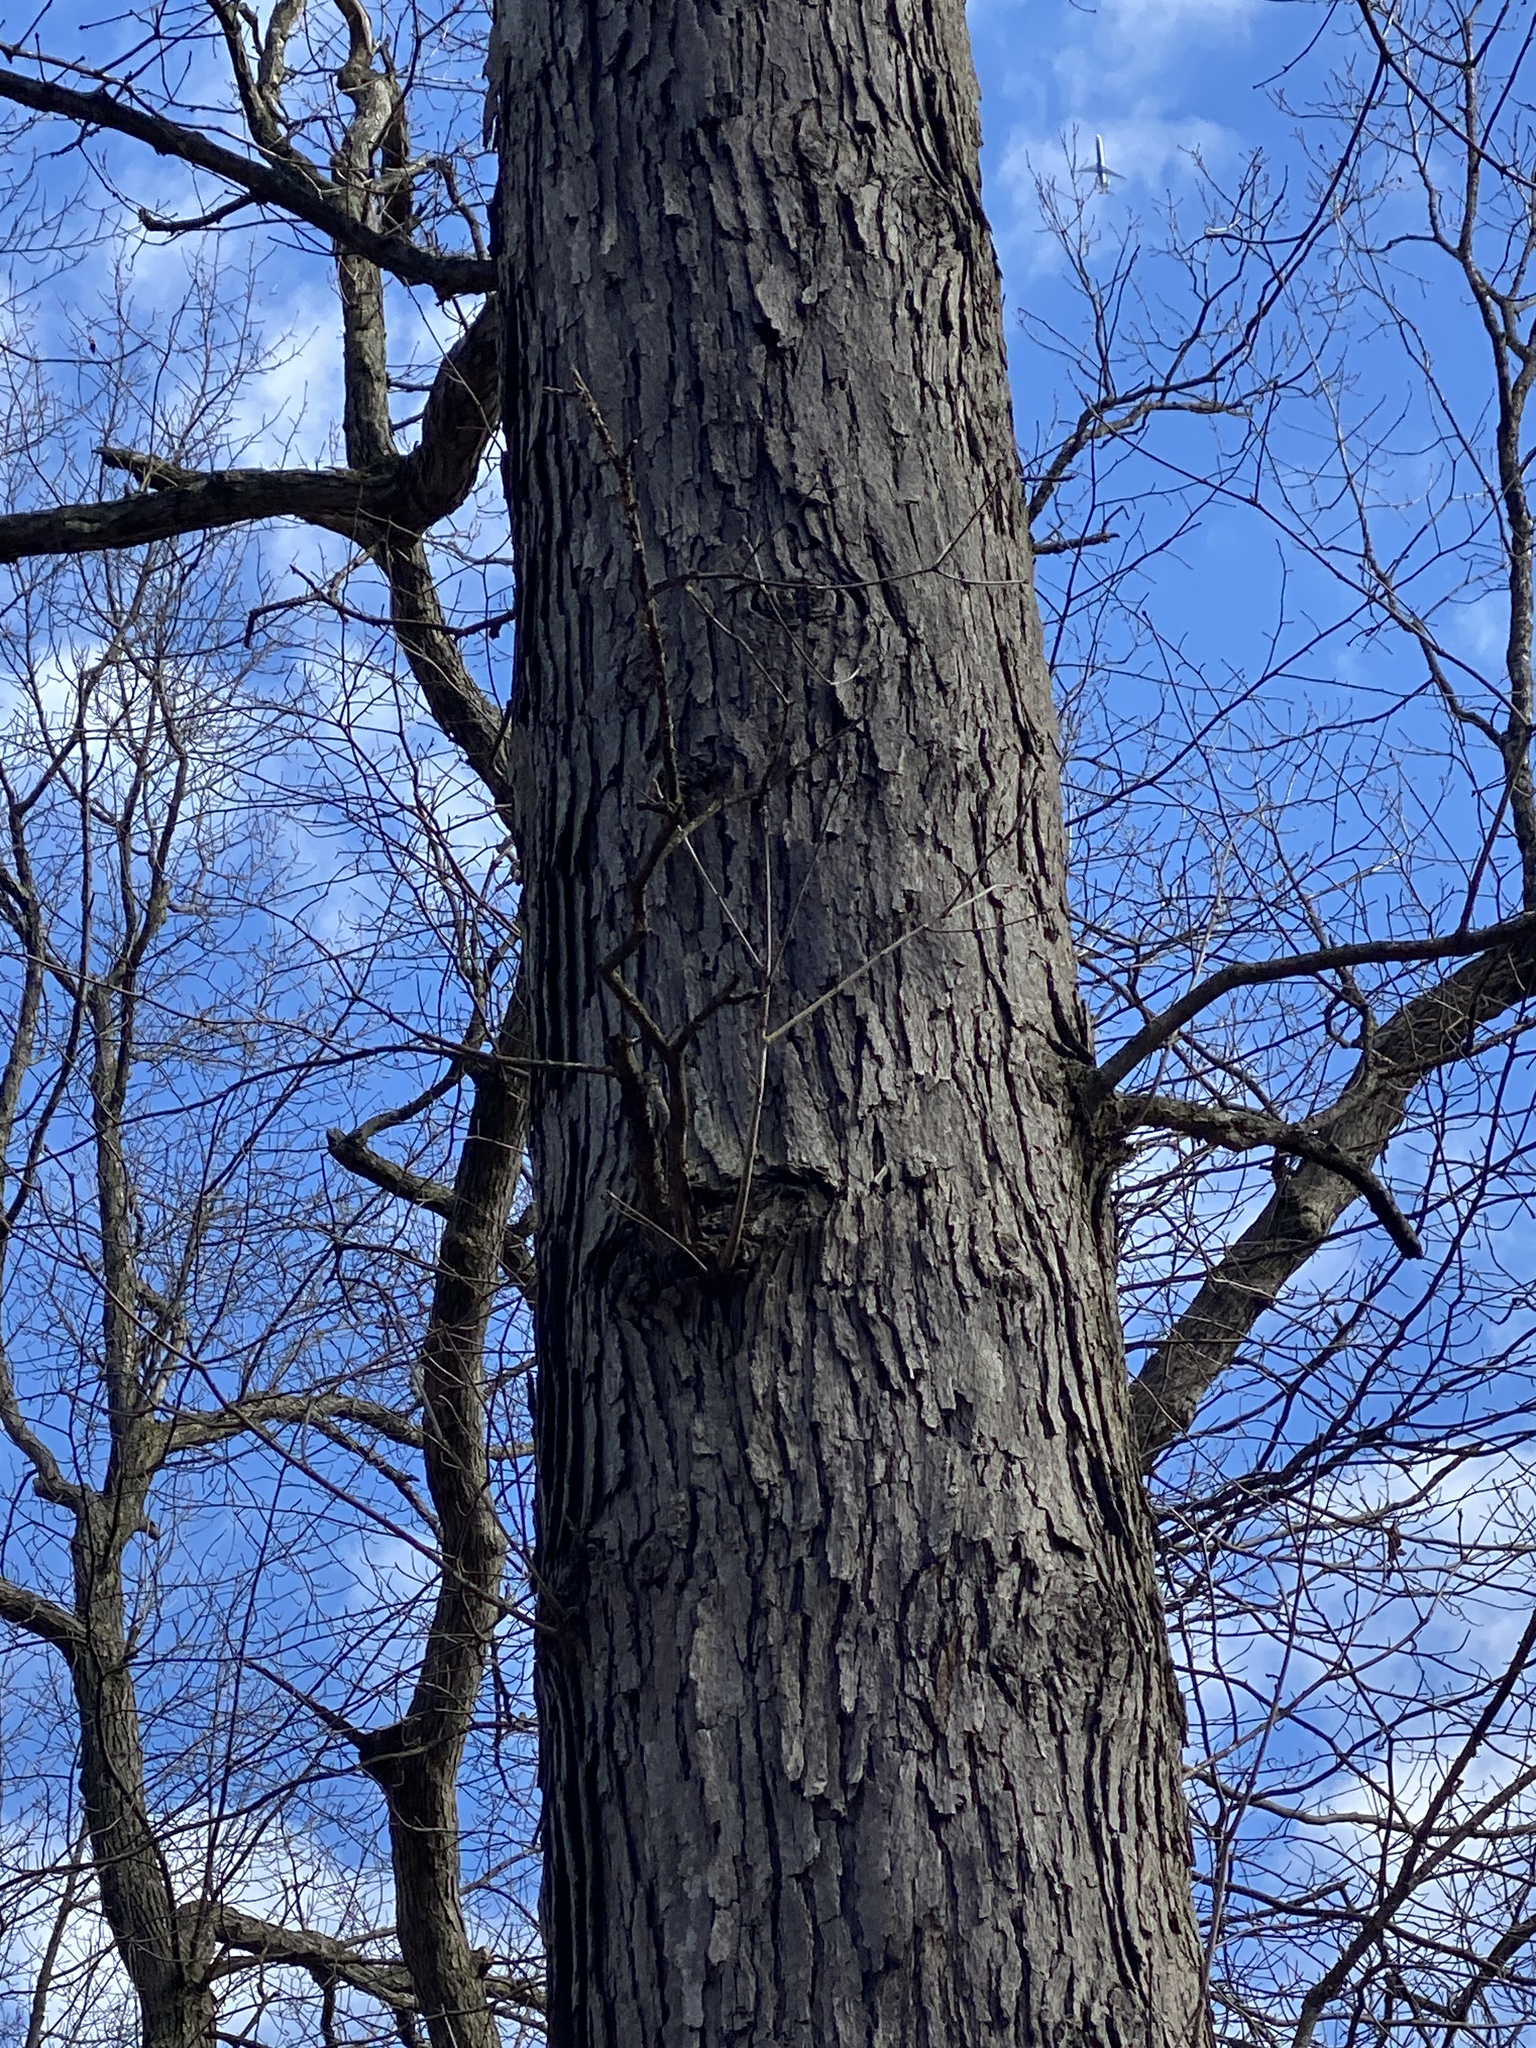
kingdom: Plantae
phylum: Tracheophyta
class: Magnoliopsida
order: Fagales
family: Fagaceae
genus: Quercus
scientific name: Quercus alba
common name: White oak
